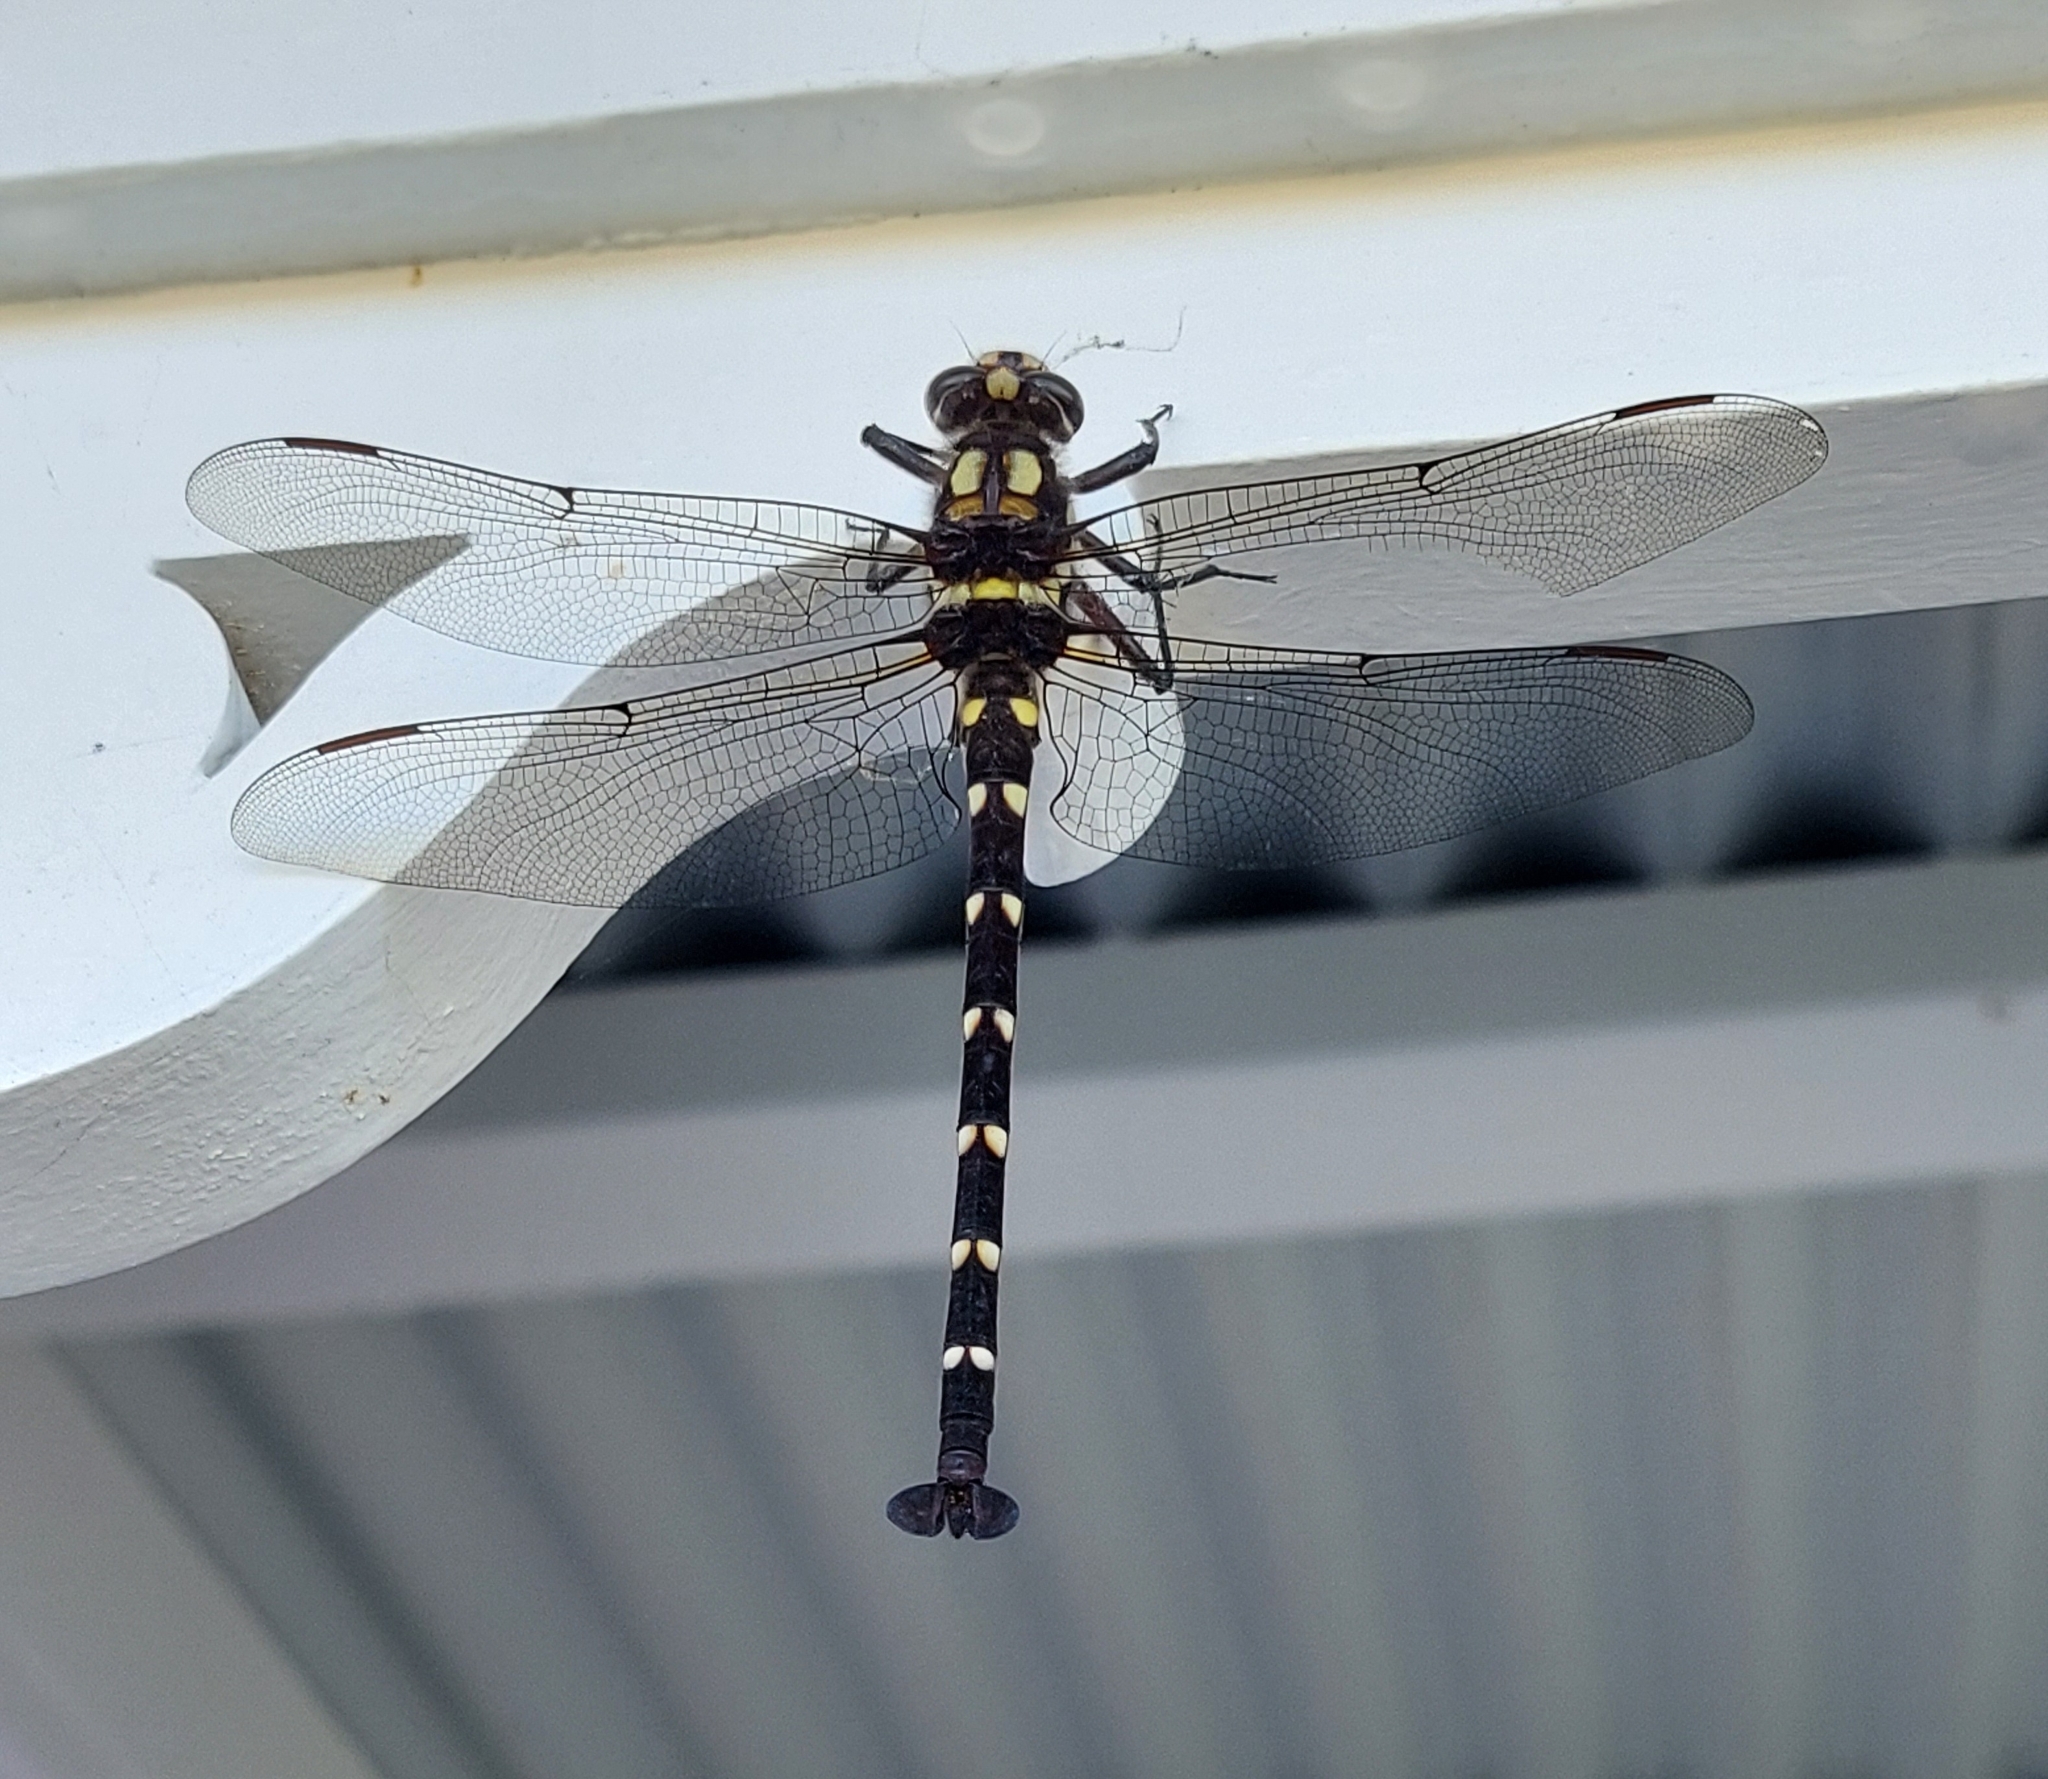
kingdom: Animalia
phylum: Arthropoda
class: Insecta
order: Odonata
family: Petaluridae
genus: Uropetala
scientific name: Uropetala carovei
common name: Bush giant dragonfly
